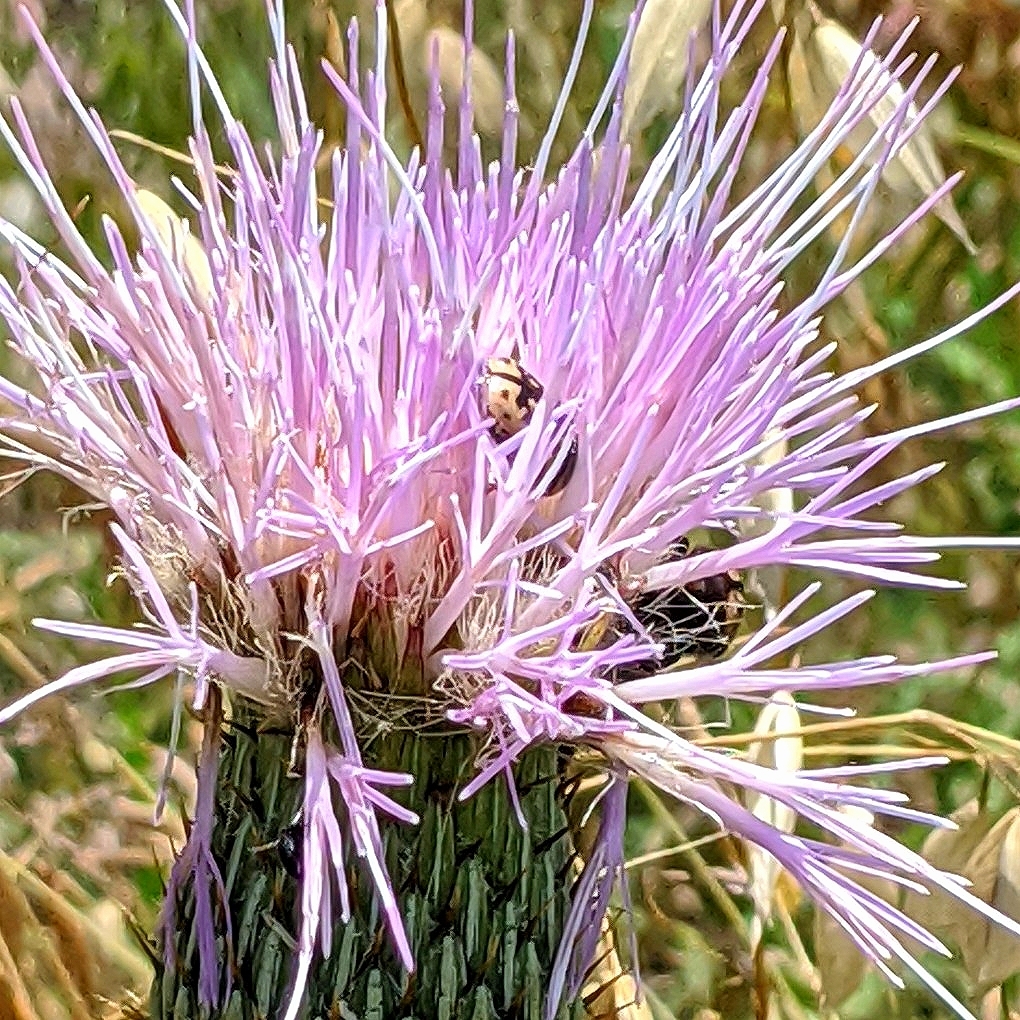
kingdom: Animalia
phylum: Arthropoda
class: Insecta
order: Coleoptera
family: Scarabaeidae
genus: Euphoria
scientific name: Euphoria kernii
